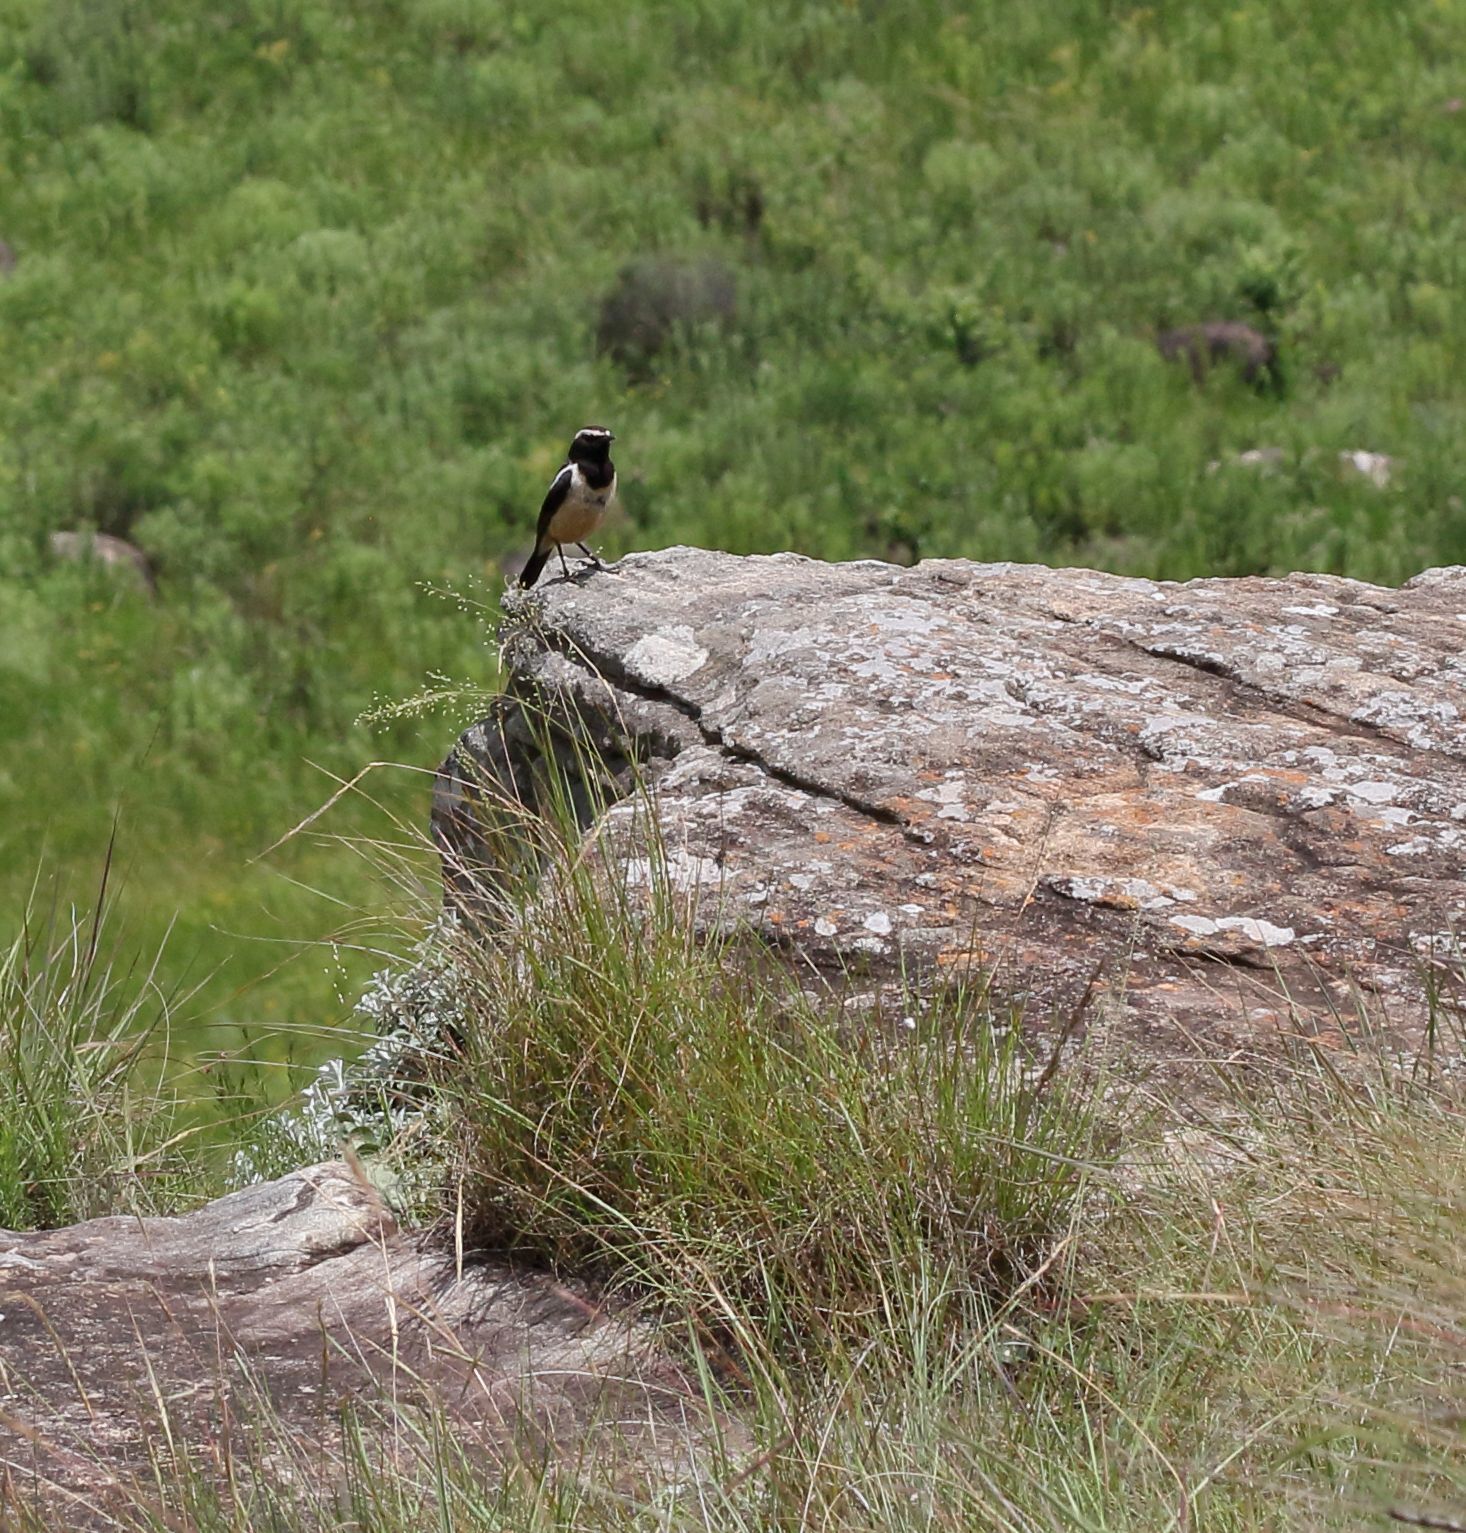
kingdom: Animalia
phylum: Chordata
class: Aves
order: Passeriformes
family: Muscicapidae
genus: Campicoloides
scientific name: Campicoloides bifasciatus
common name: Buff-streaked chat
